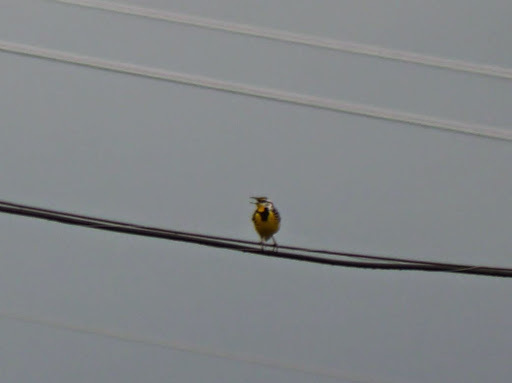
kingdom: Animalia
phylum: Chordata
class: Aves
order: Passeriformes
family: Icteridae
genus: Sturnella
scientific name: Sturnella magna
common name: Eastern meadowlark
